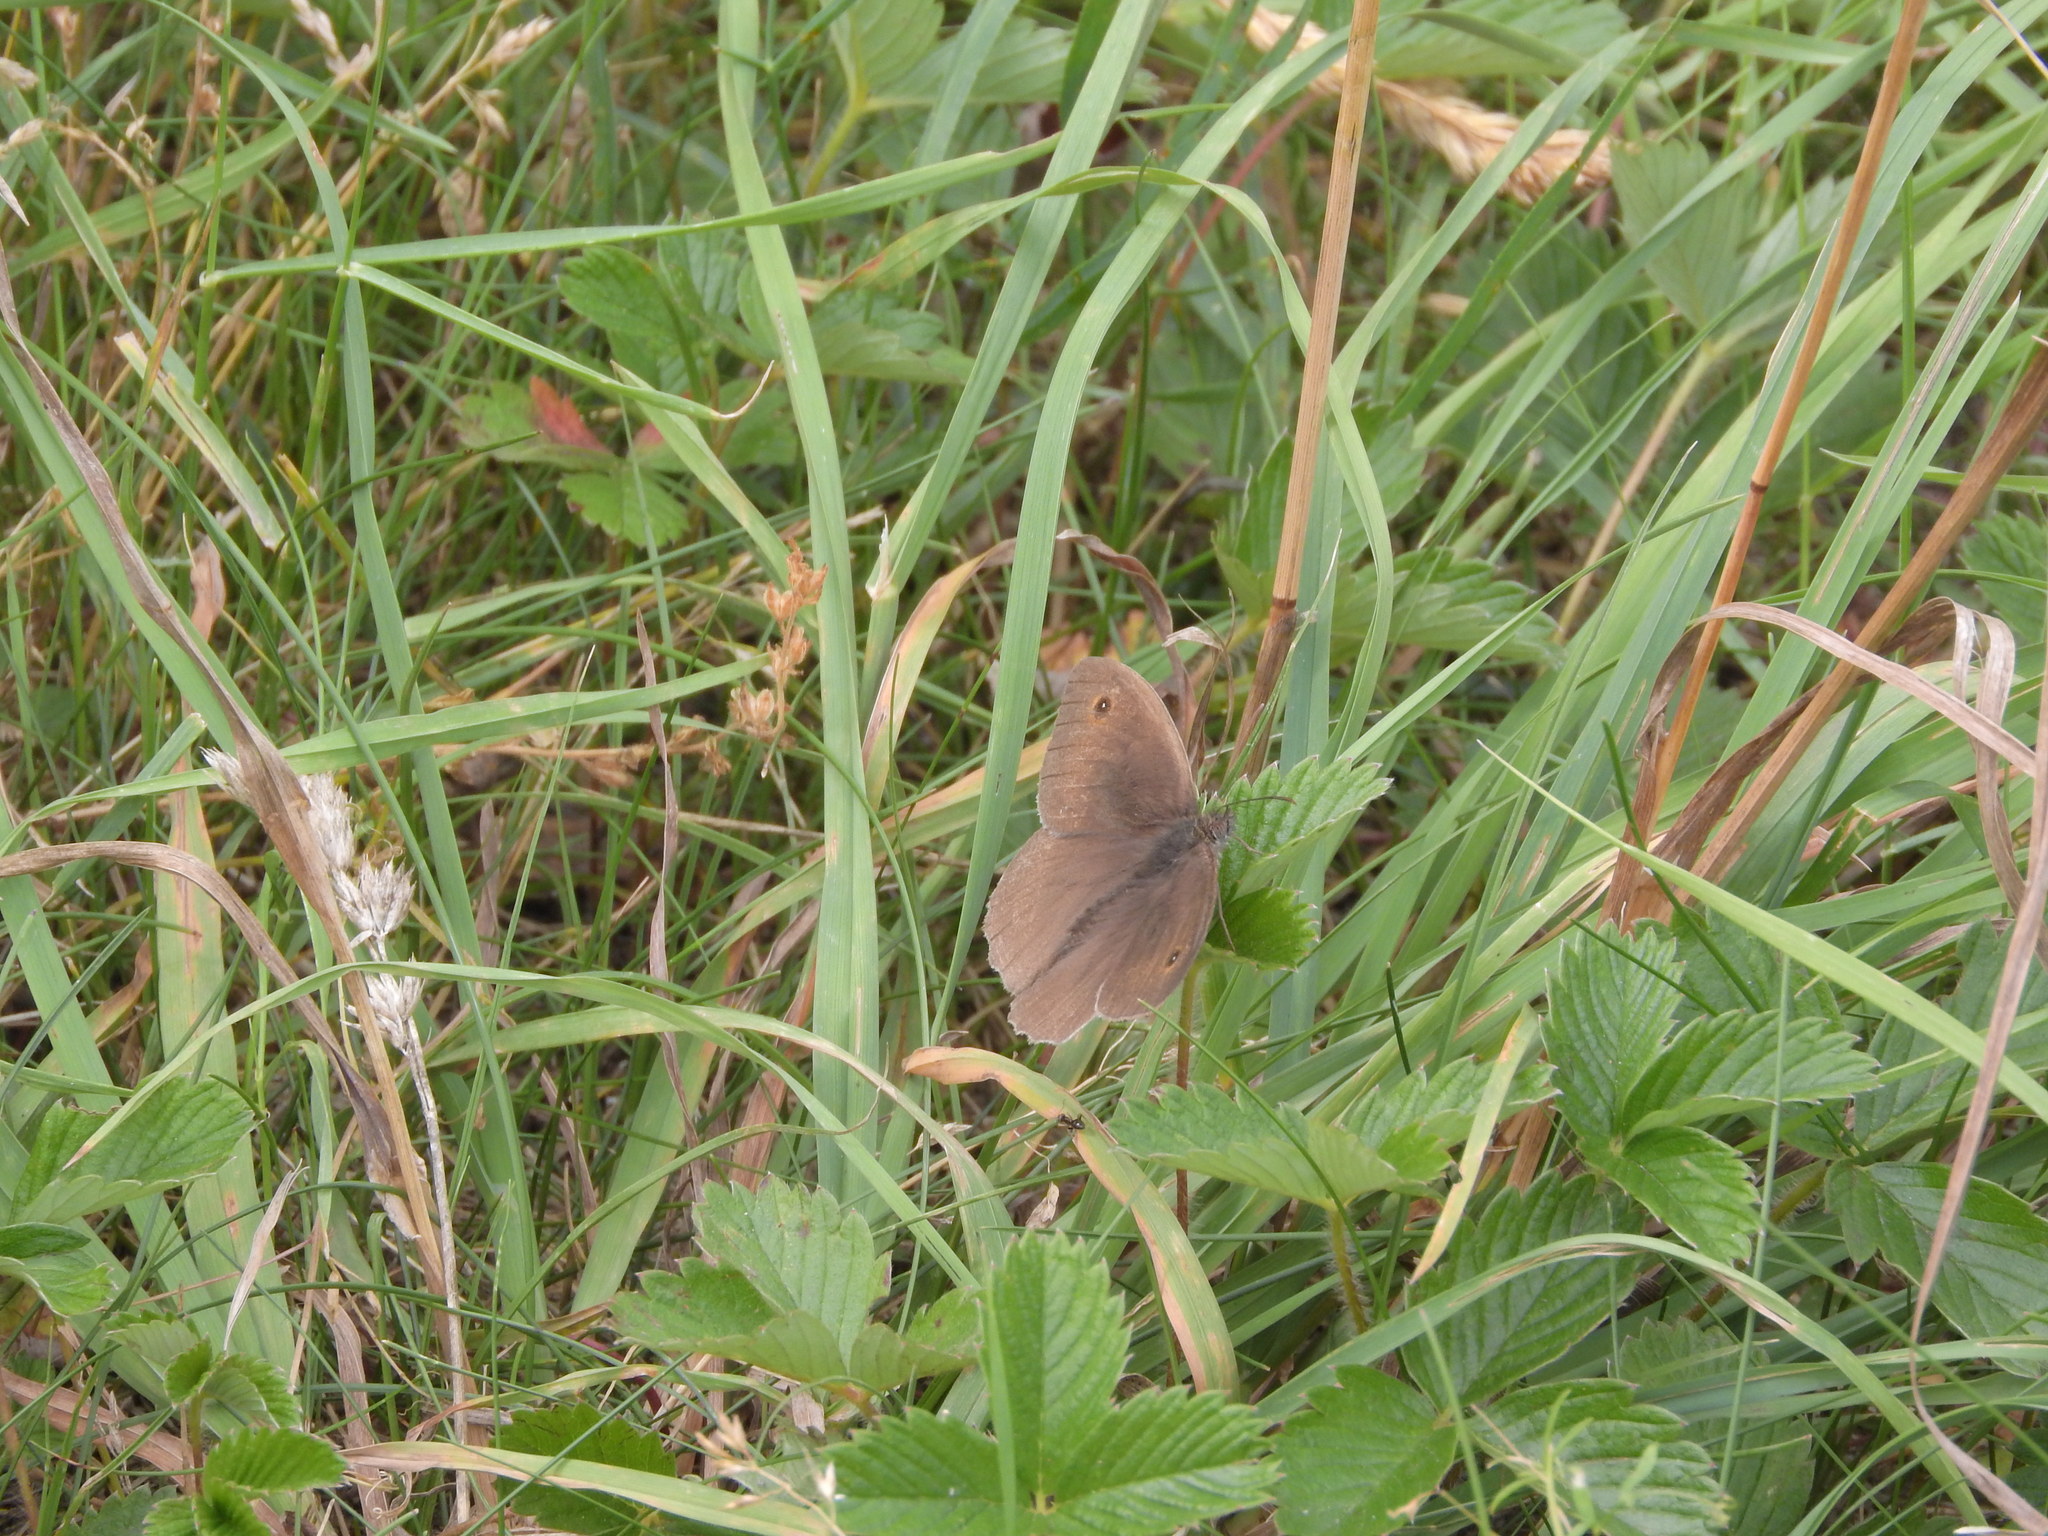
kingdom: Animalia
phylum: Arthropoda
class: Insecta
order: Lepidoptera
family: Nymphalidae
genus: Maniola
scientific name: Maniola jurtina
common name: Meadow brown
